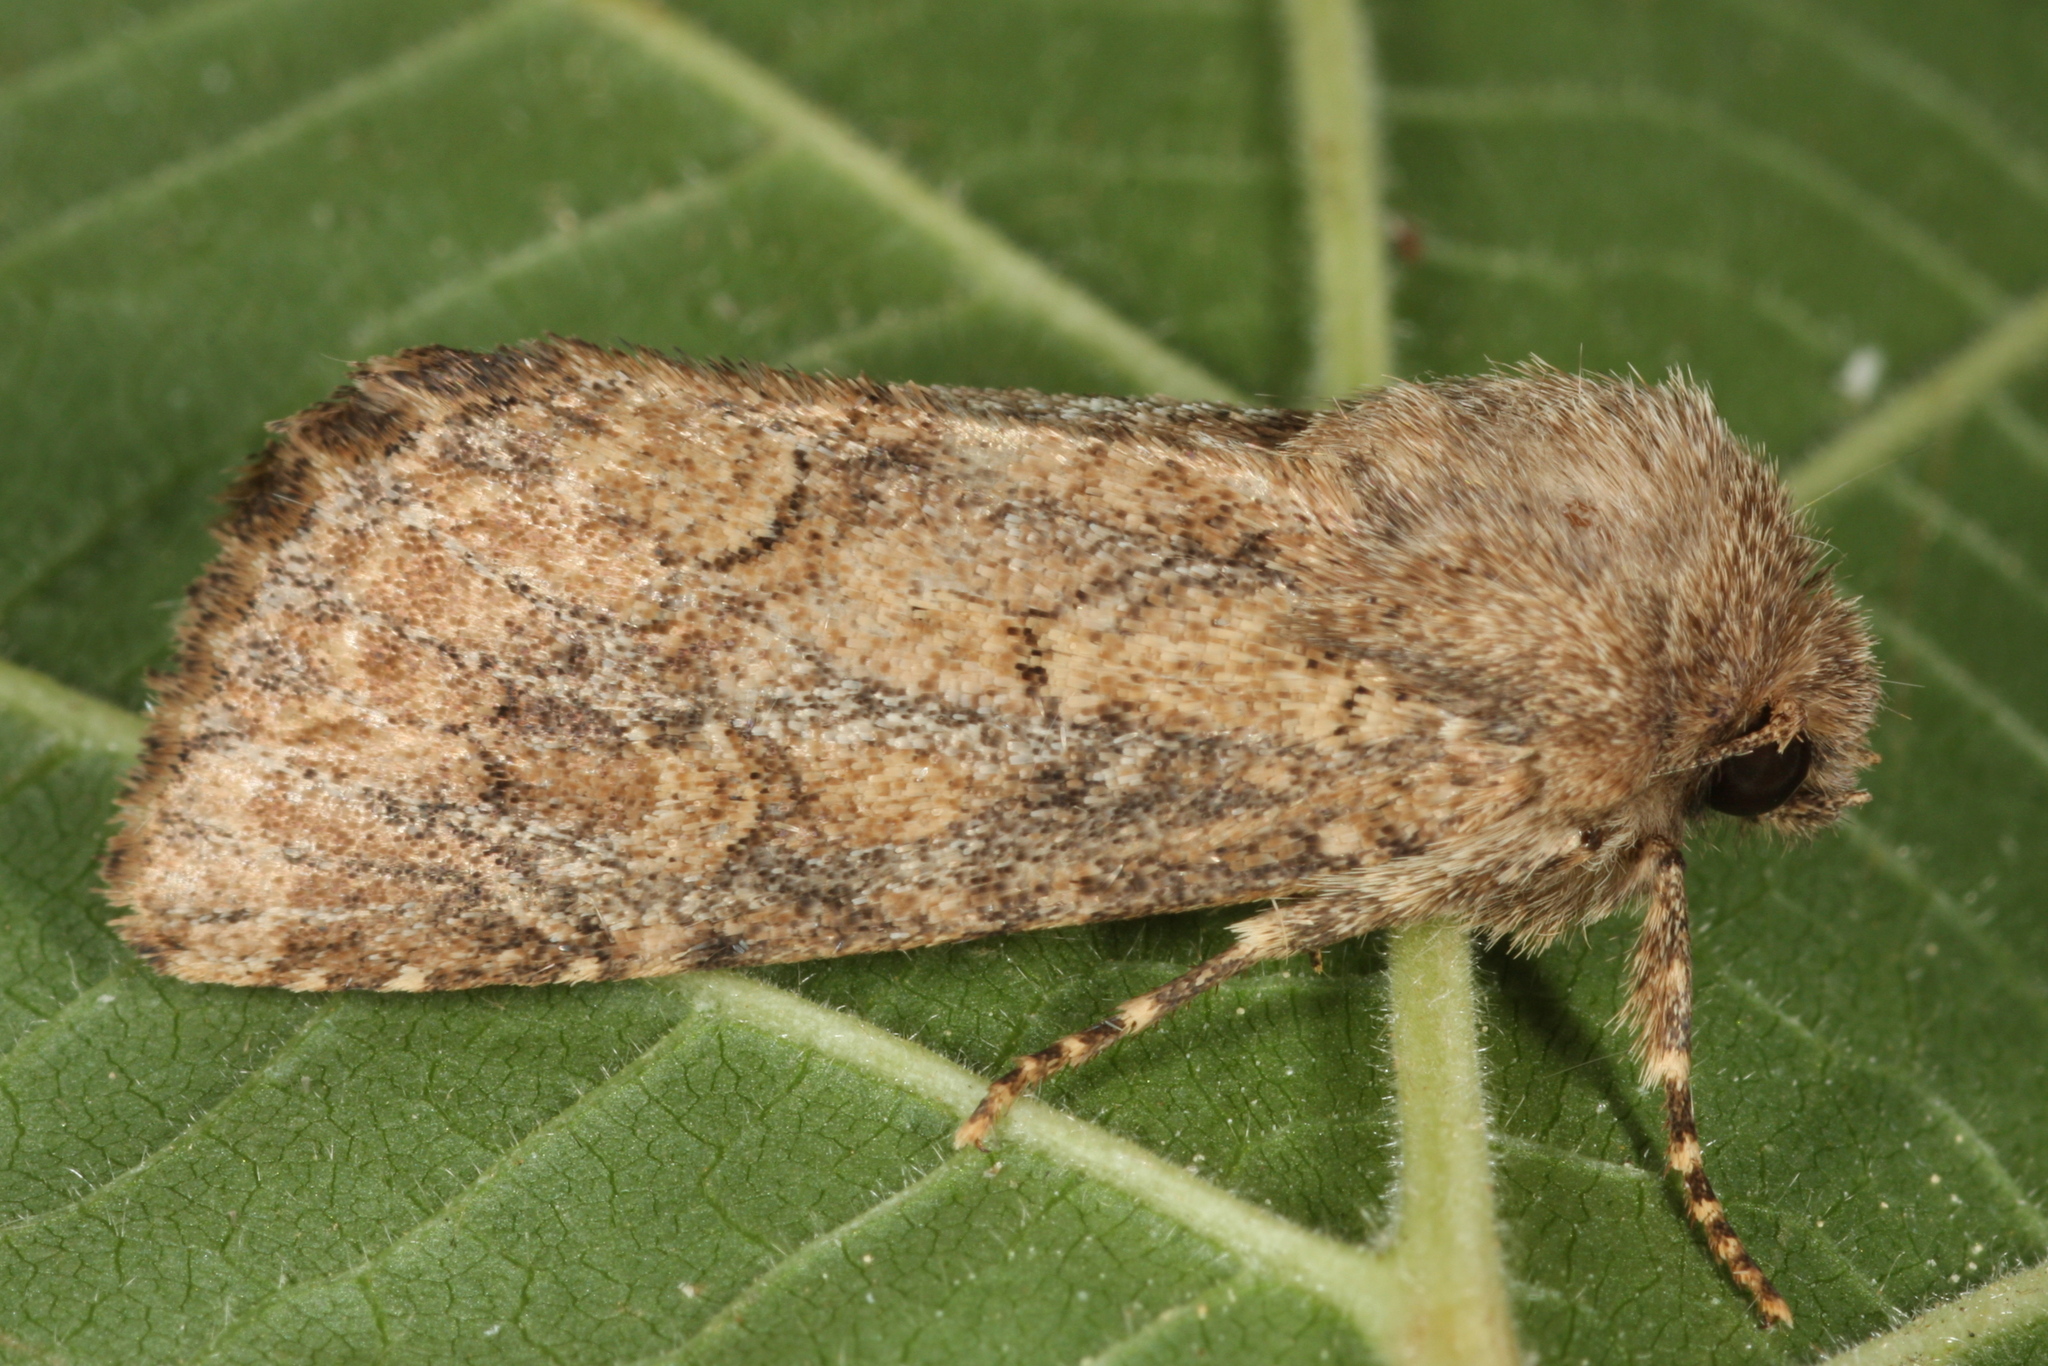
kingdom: Animalia
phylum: Arthropoda
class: Insecta
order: Lepidoptera
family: Noctuidae
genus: Luperina
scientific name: Luperina testacea
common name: Flounced rustic
